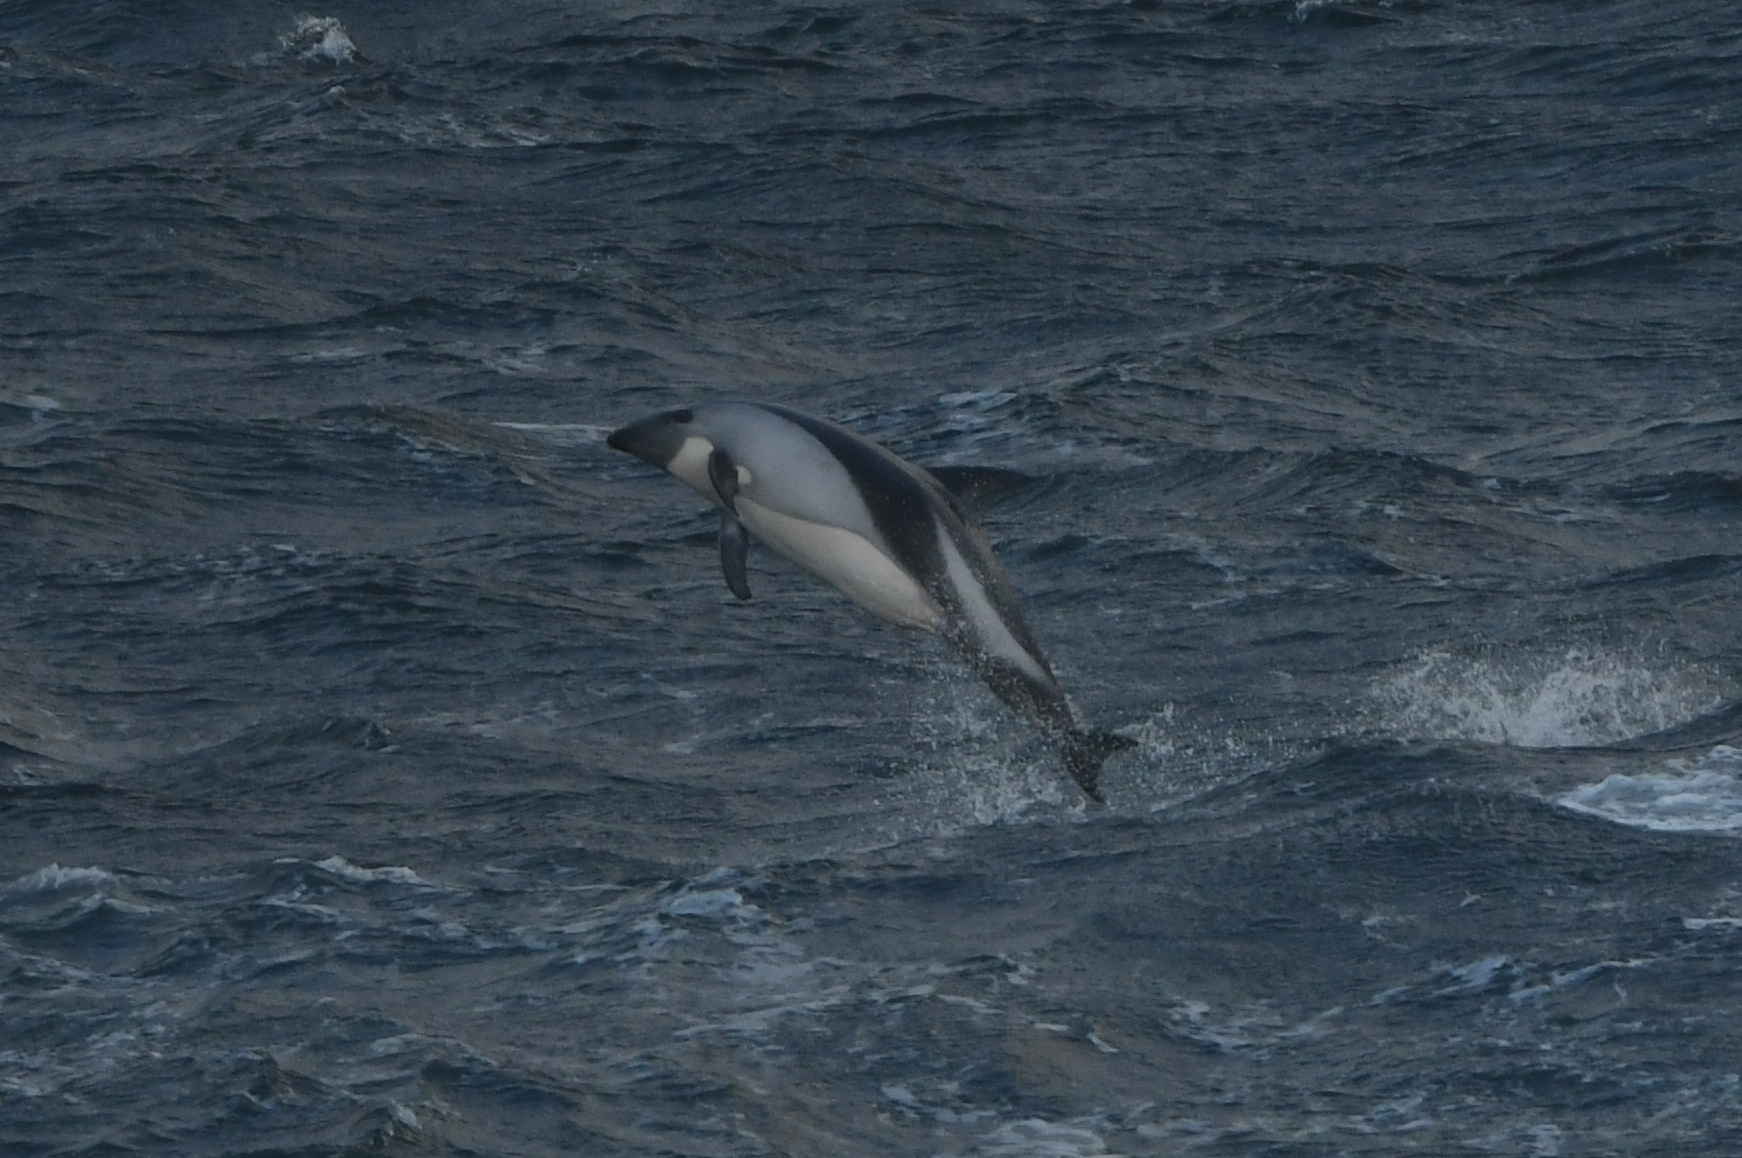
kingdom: Animalia
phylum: Chordata
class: Mammalia
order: Cetacea
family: Delphinidae
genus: Lagenorhynchus
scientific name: Lagenorhynchus australis
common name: Peale's dolphin
